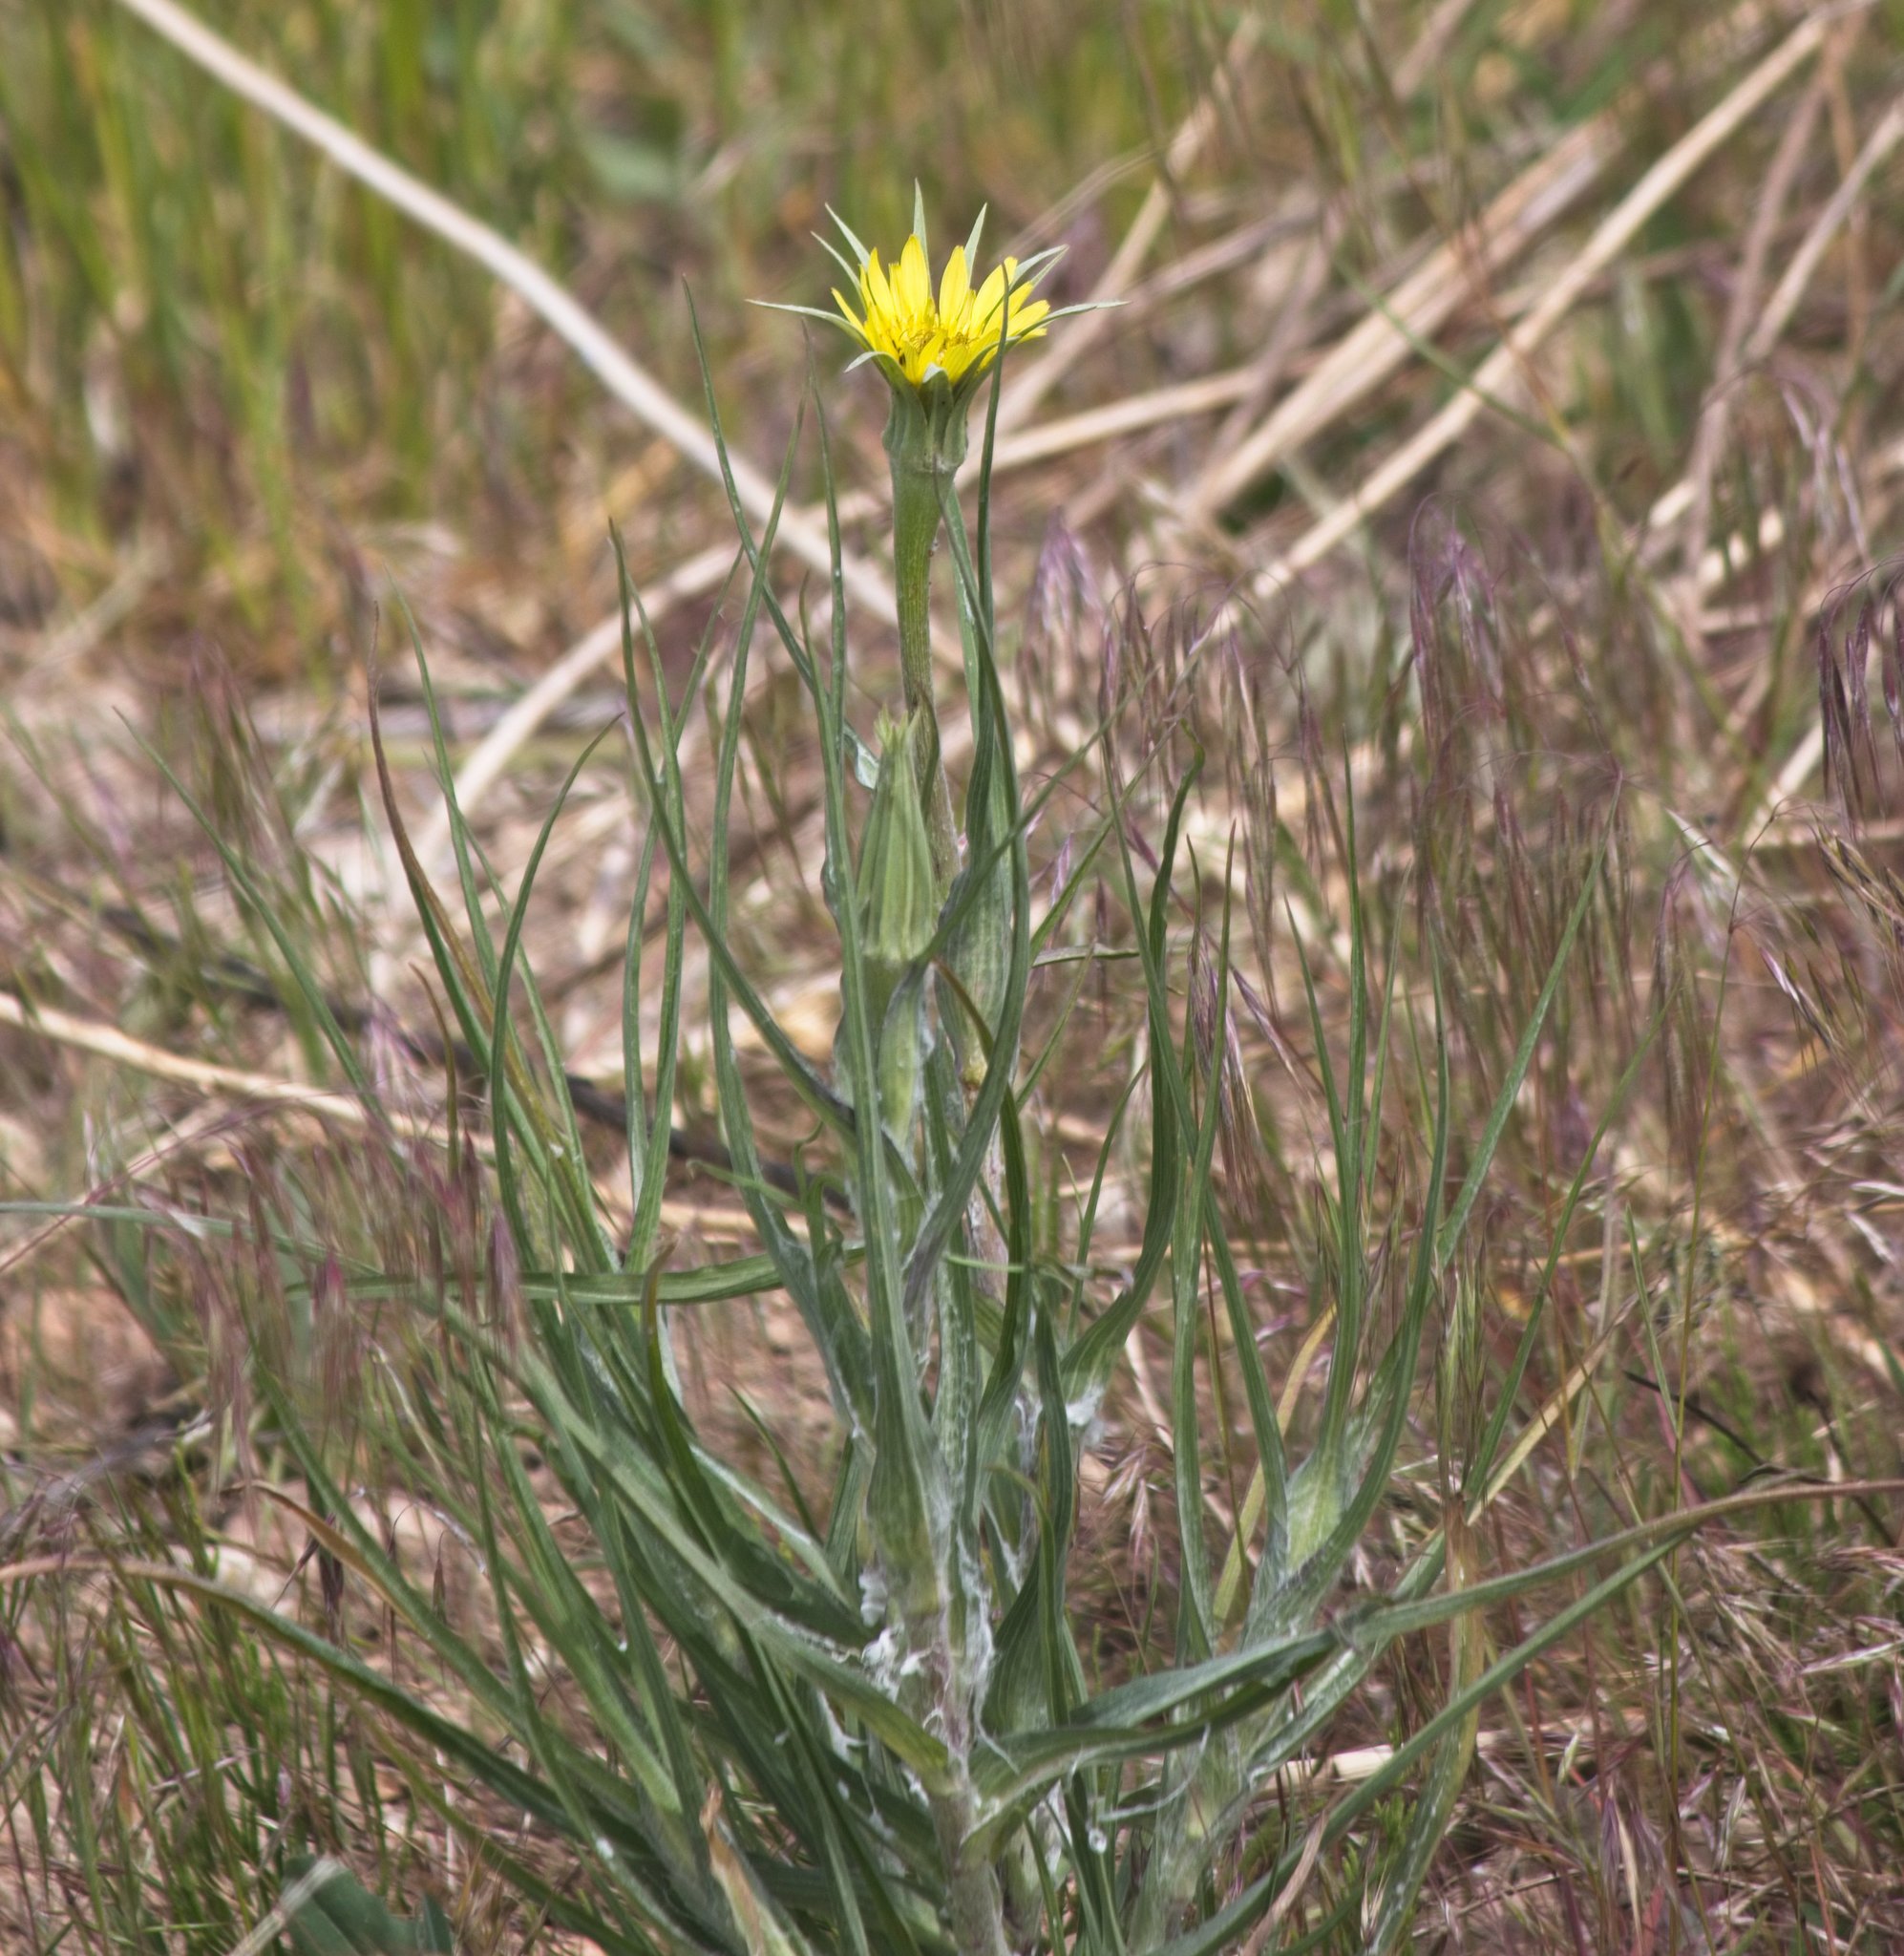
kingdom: Plantae
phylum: Tracheophyta
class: Magnoliopsida
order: Asterales
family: Asteraceae
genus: Tragopogon
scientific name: Tragopogon dubius
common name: Yellow salsify
